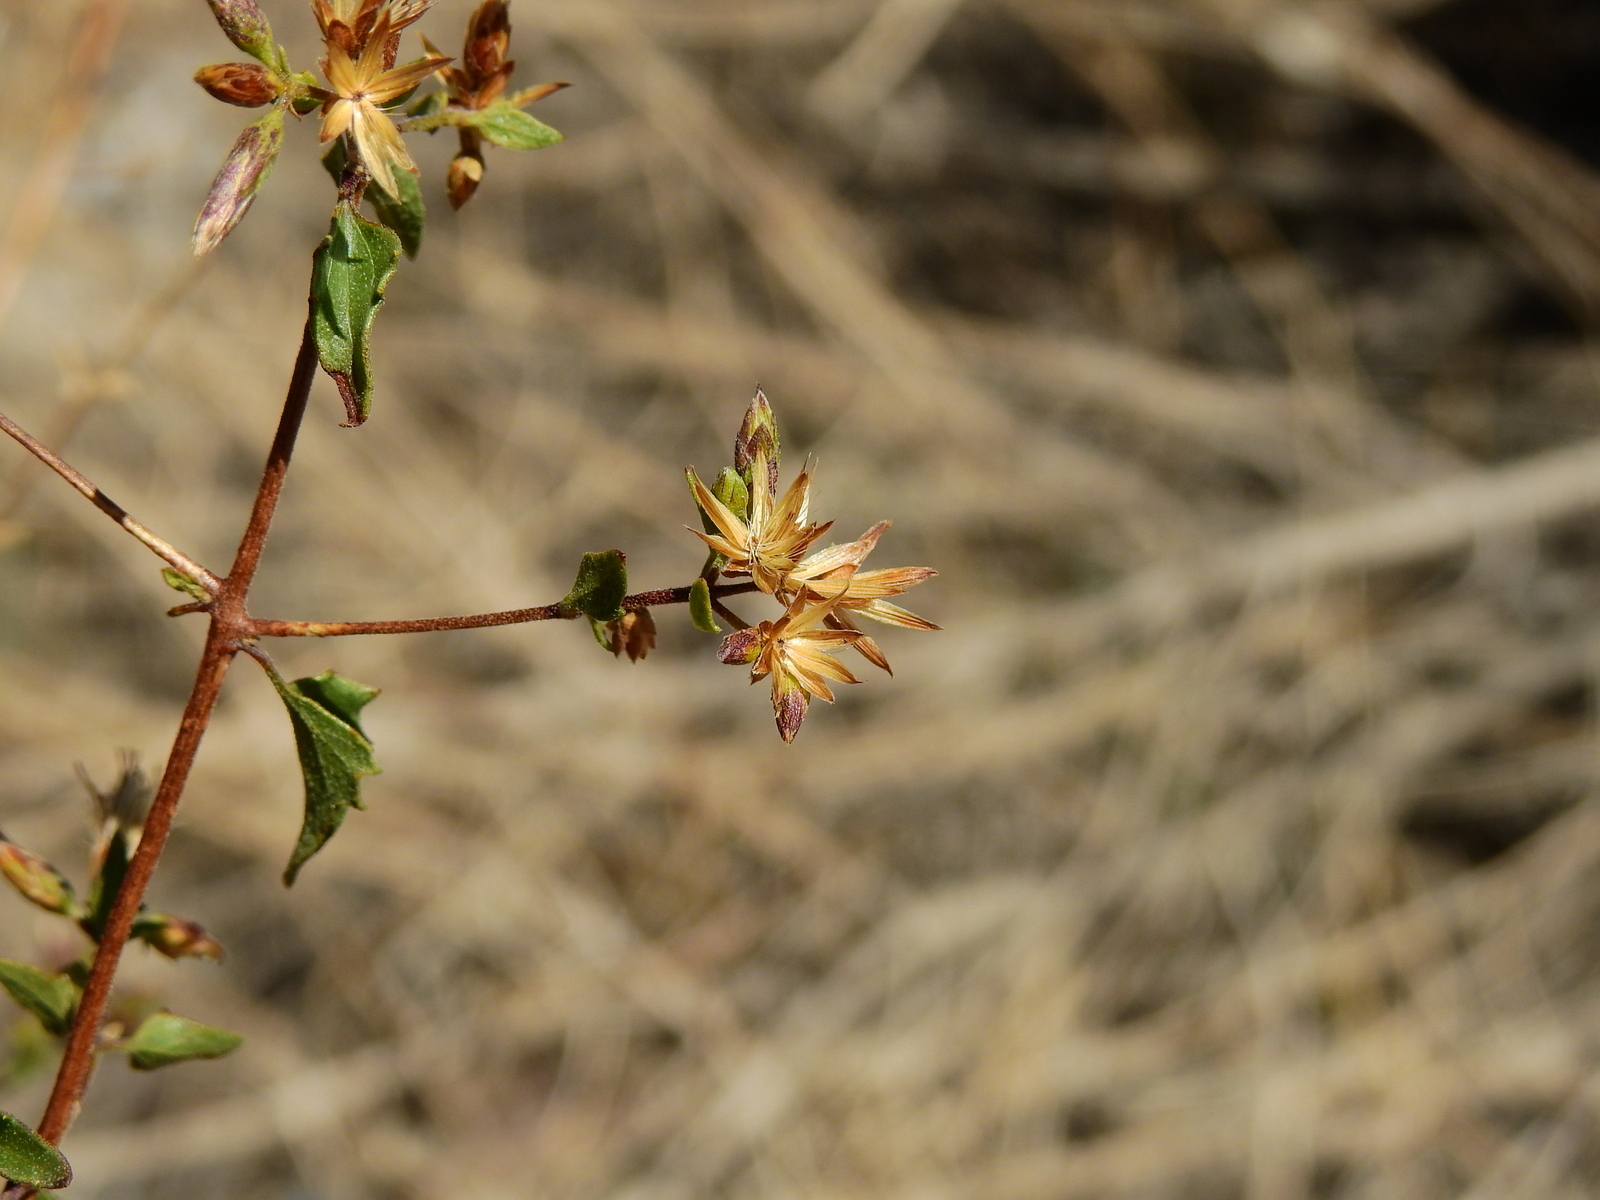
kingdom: Plantae
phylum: Tracheophyta
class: Magnoliopsida
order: Asterales
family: Asteraceae
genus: Austrobrickellia
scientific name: Austrobrickellia patens
